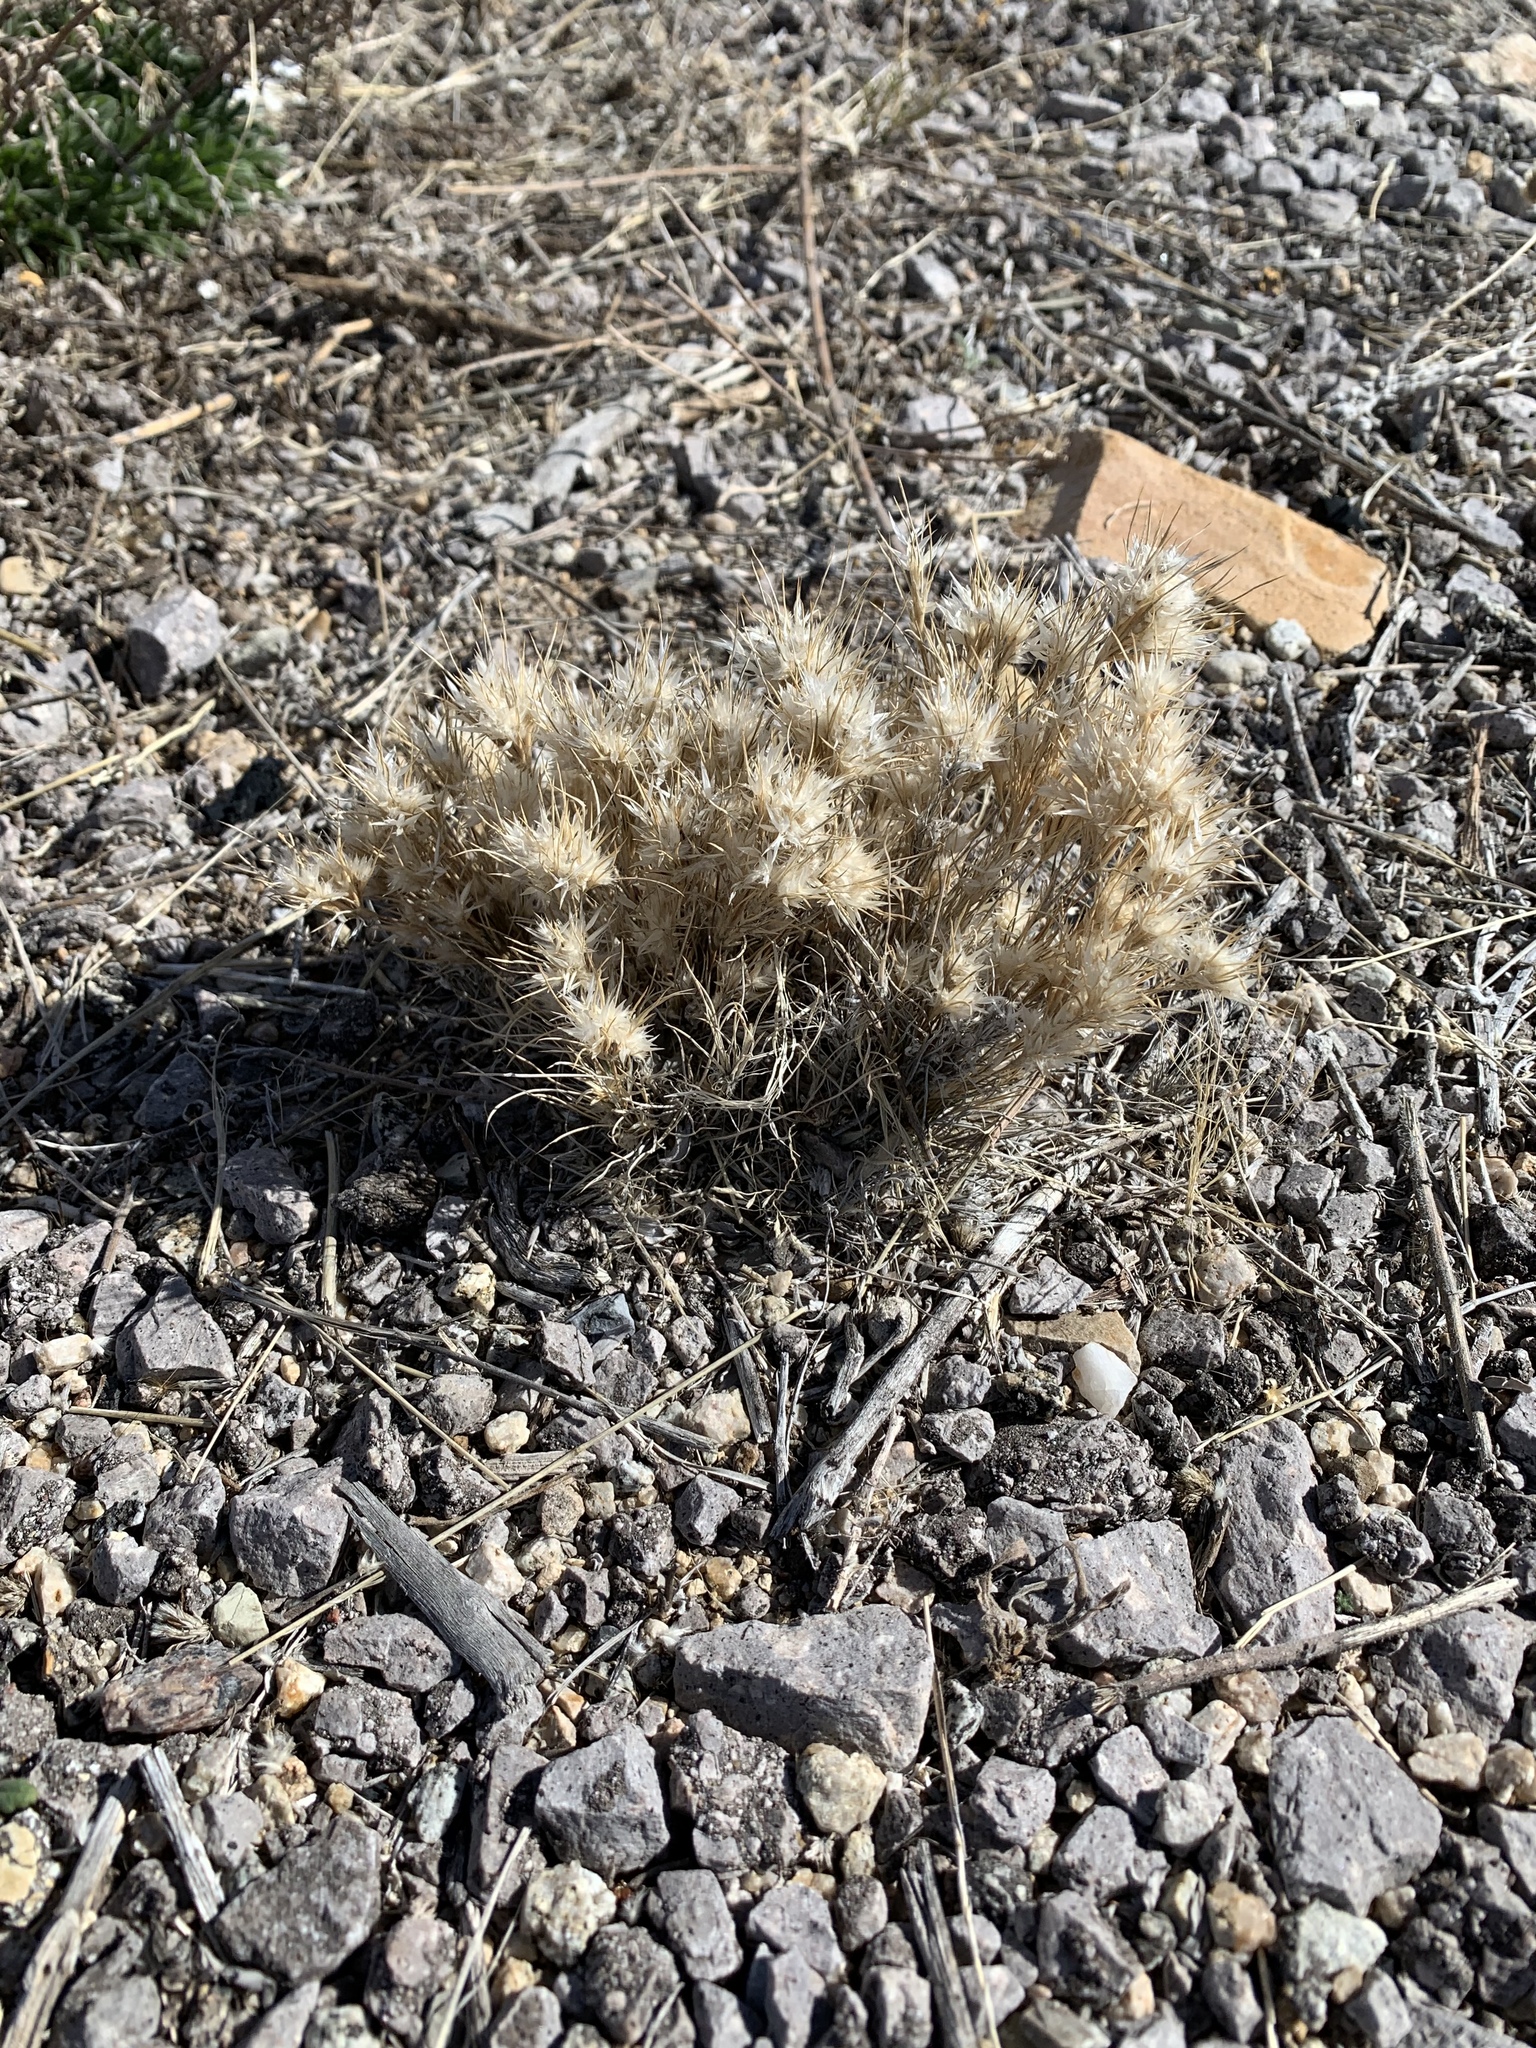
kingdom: Plantae
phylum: Tracheophyta
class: Liliopsida
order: Poales
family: Poaceae
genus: Dasyochloa
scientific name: Dasyochloa pulchella
